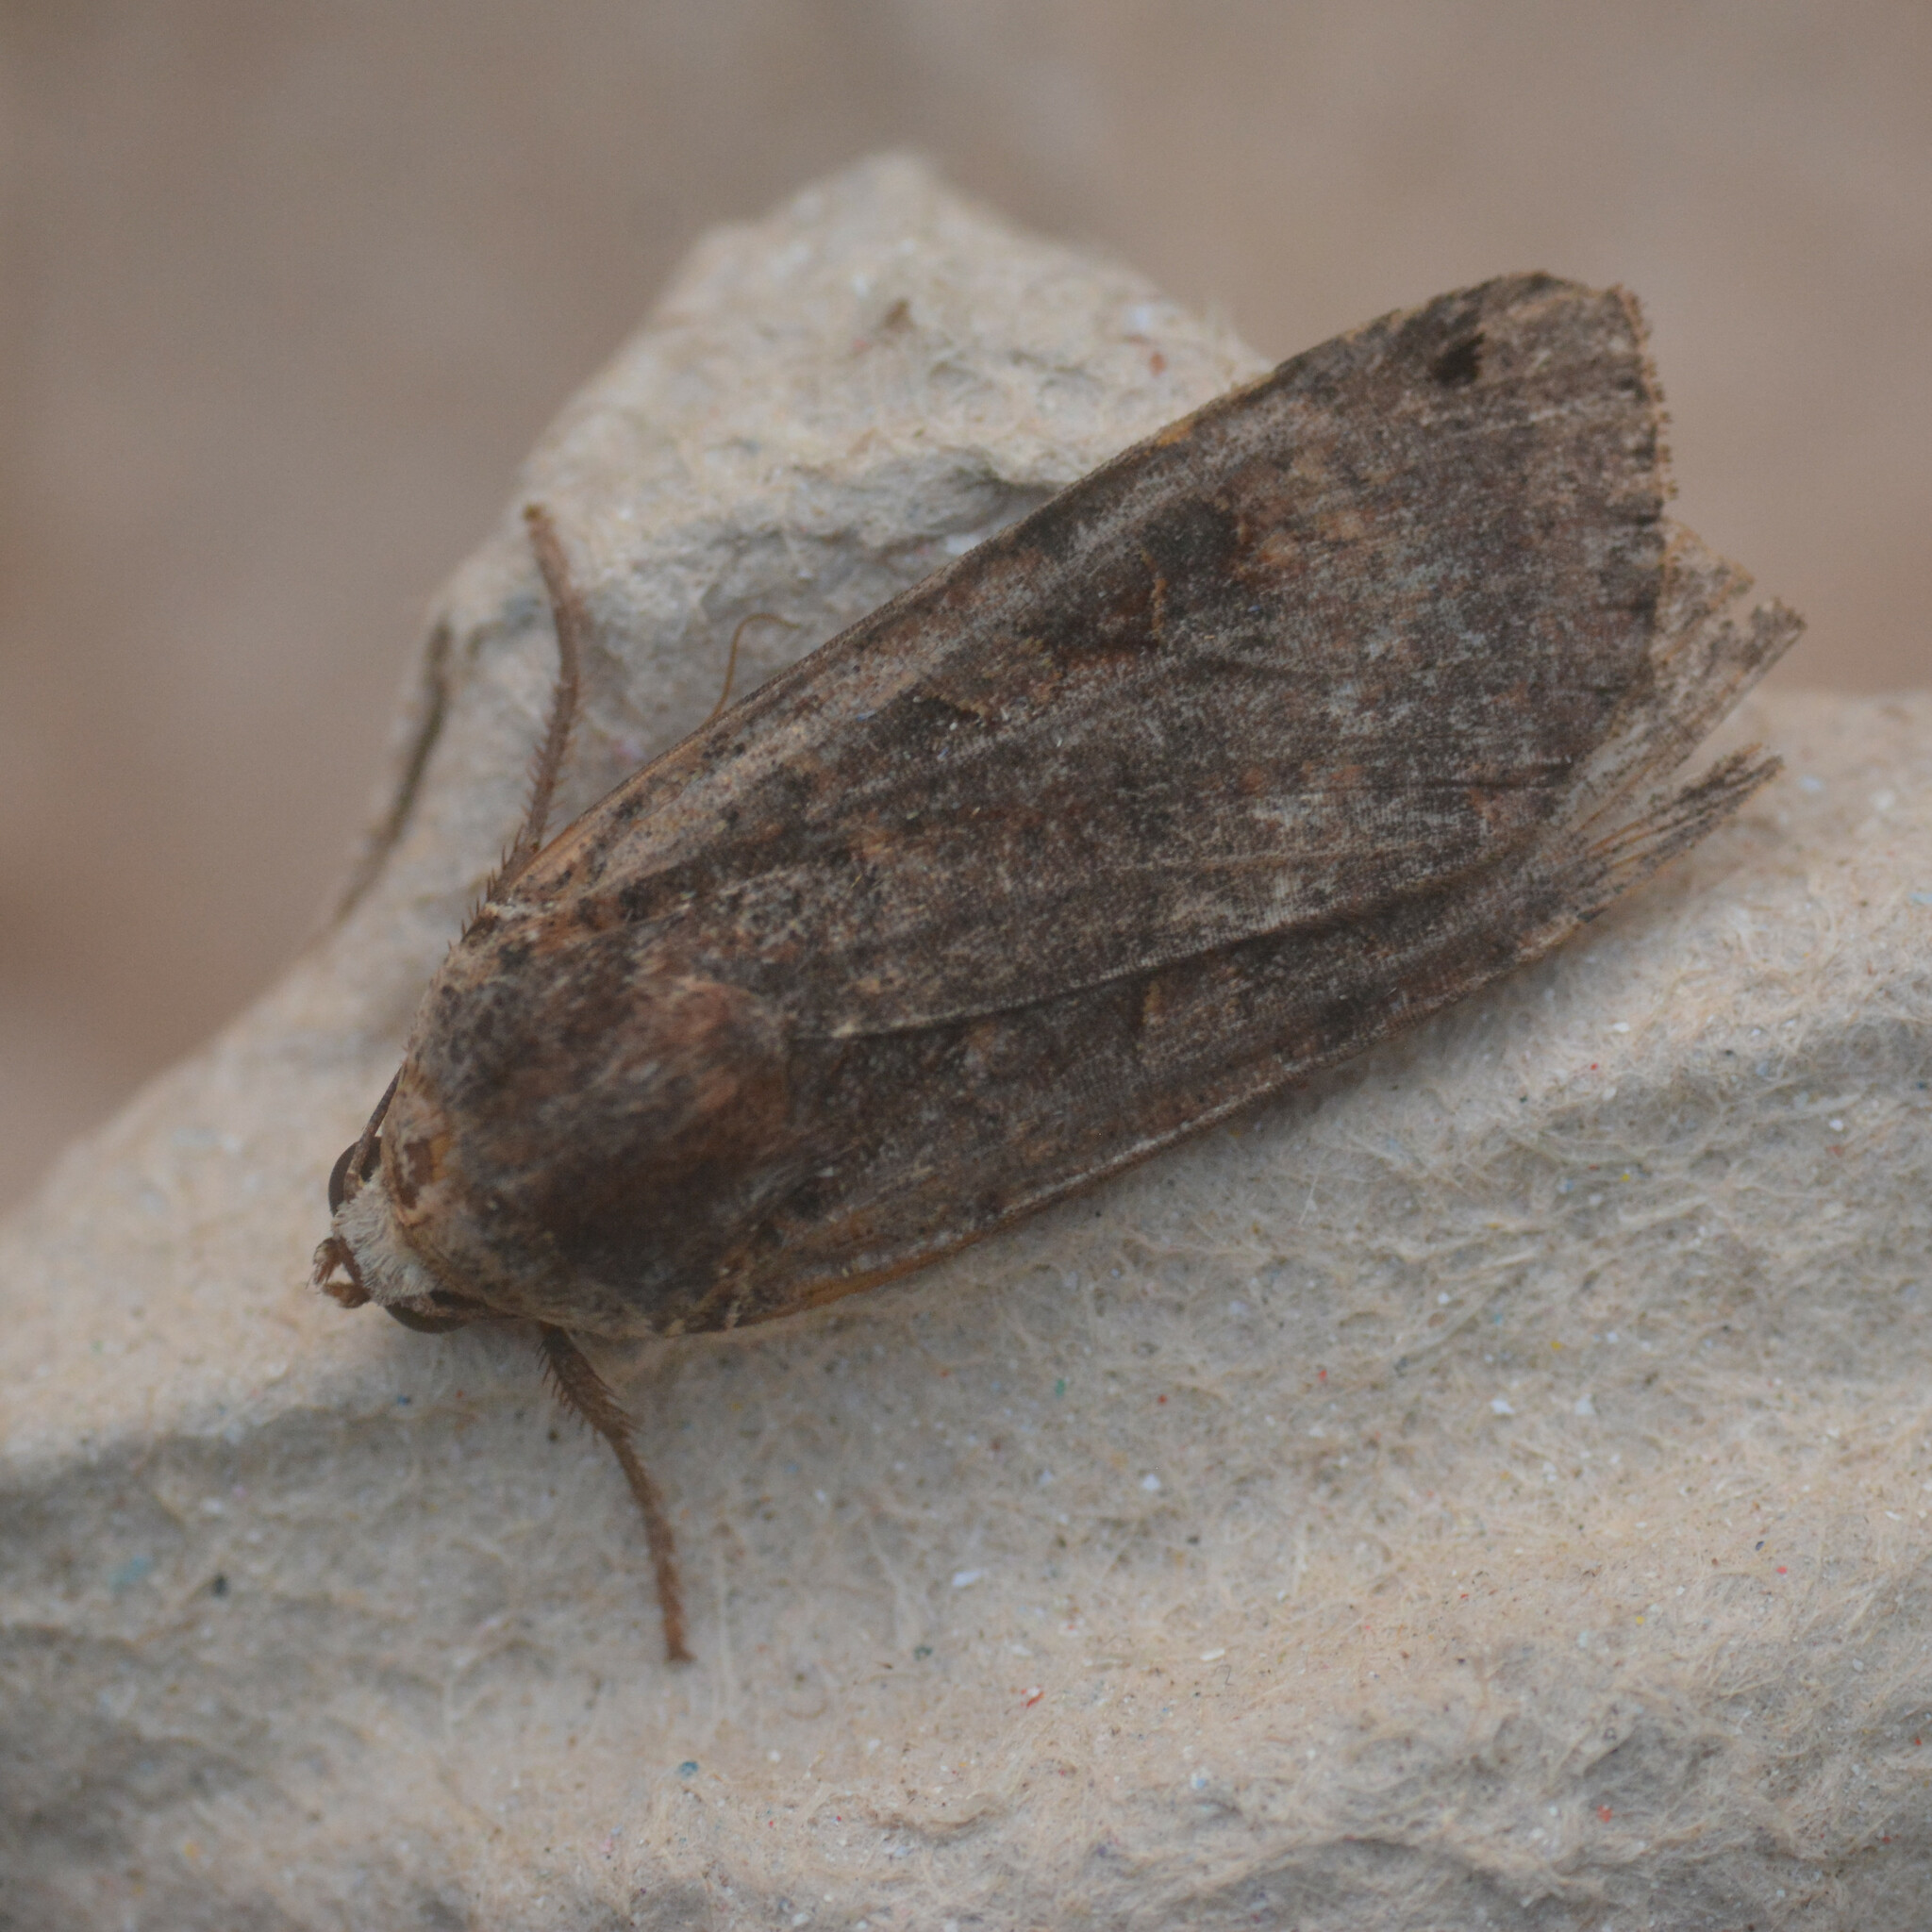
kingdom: Animalia
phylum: Arthropoda
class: Insecta
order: Lepidoptera
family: Noctuidae
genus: Noctua
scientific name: Noctua pronuba
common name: Large yellow underwing
